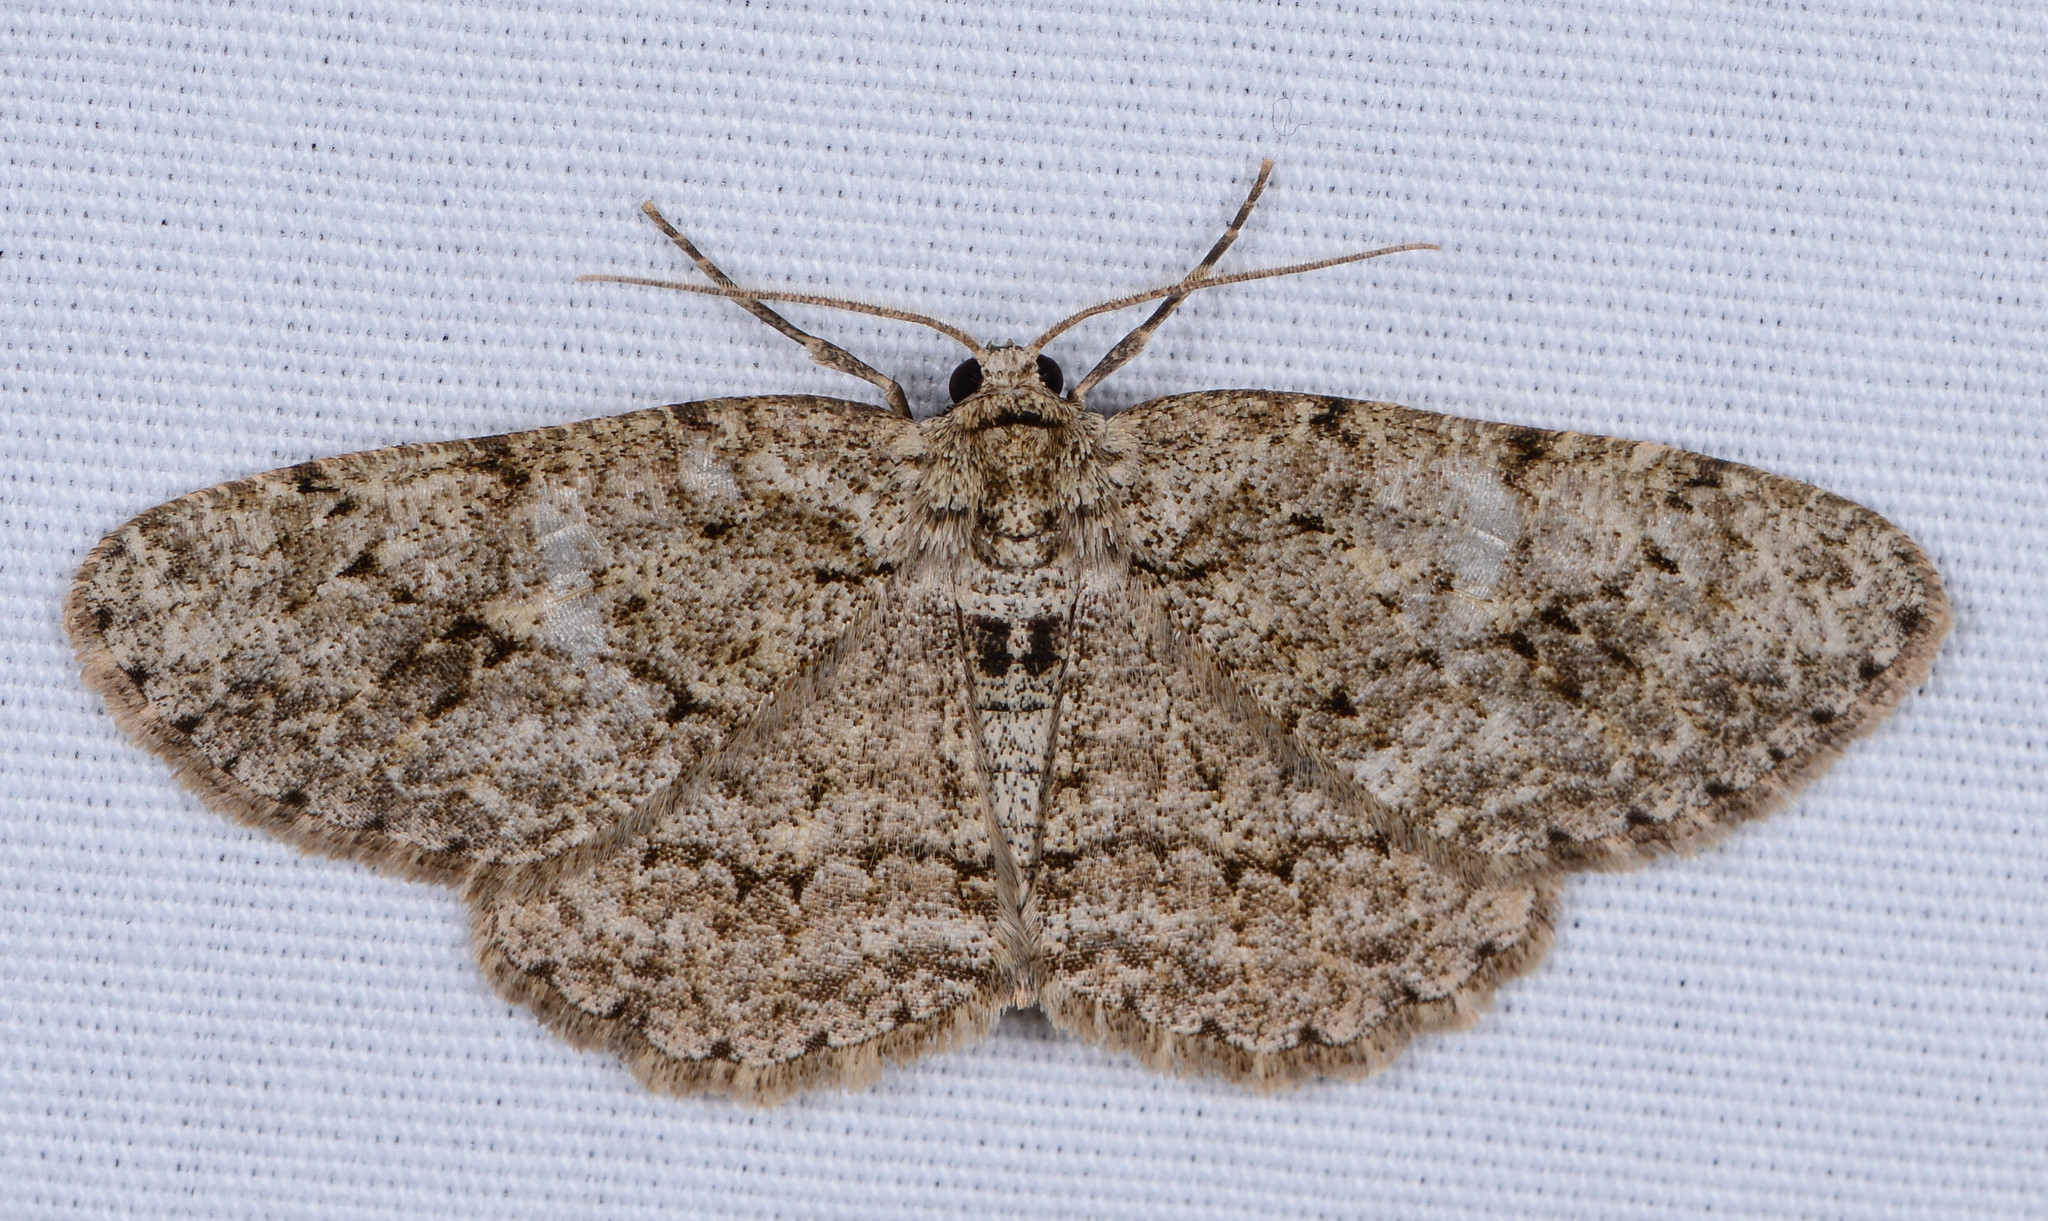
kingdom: Animalia
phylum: Arthropoda
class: Insecta
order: Lepidoptera
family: Geometridae
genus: Ectropis
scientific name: Ectropis crepuscularia
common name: Engrailed
